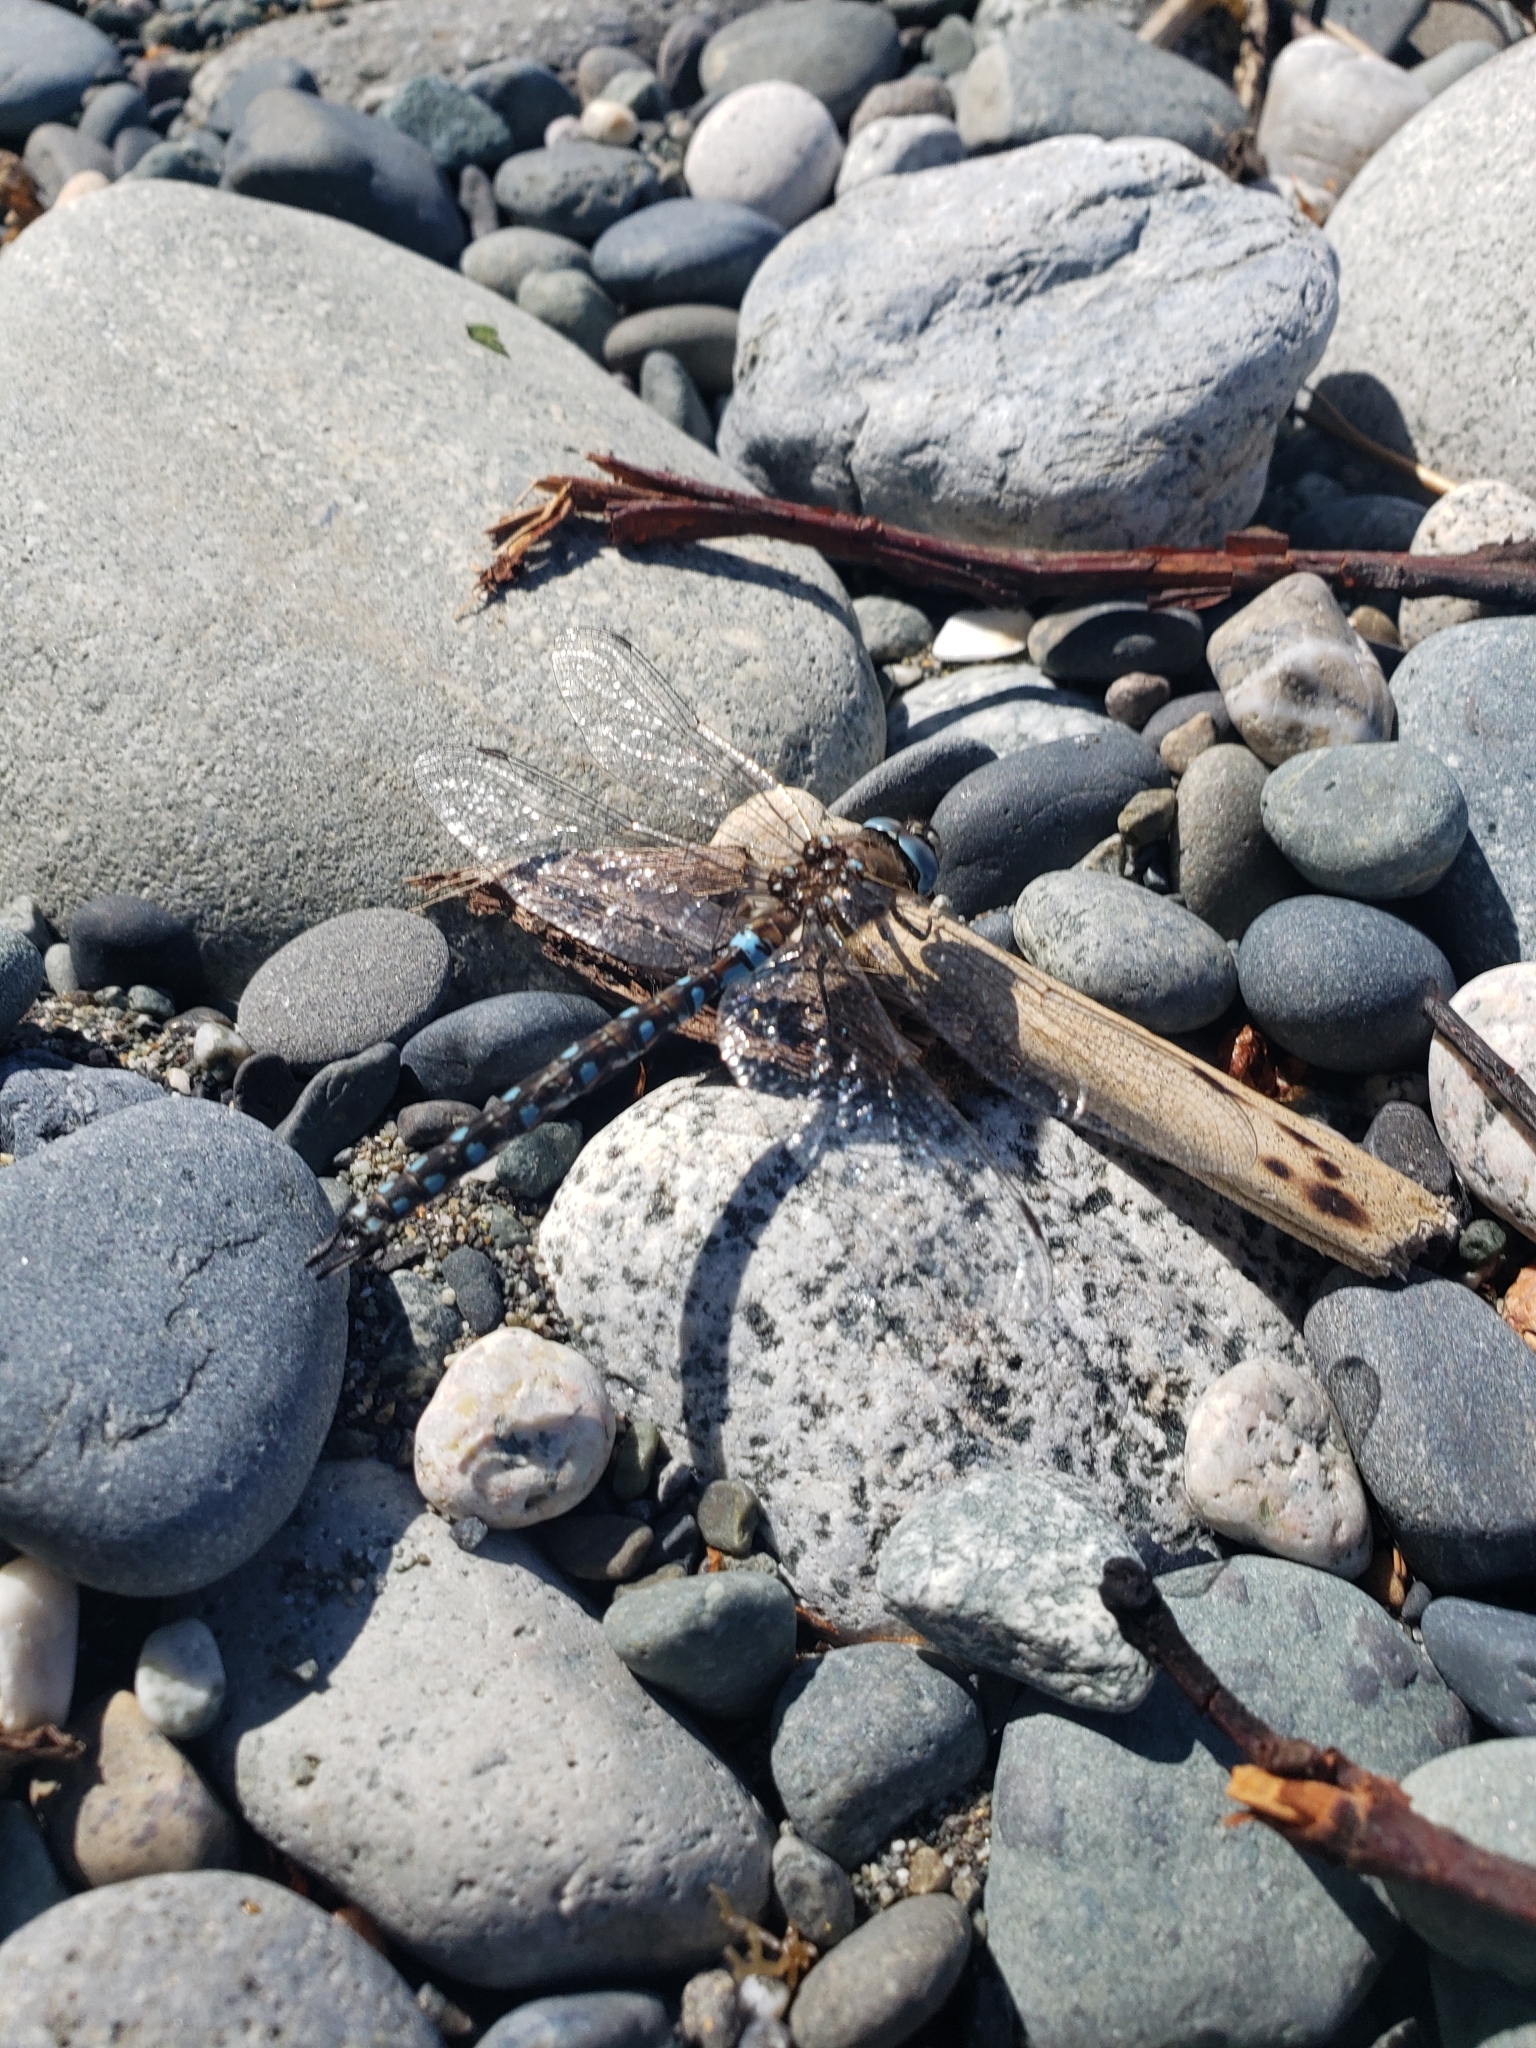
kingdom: Animalia
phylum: Arthropoda
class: Insecta
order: Odonata
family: Aeshnidae
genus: Rhionaeschna
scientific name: Rhionaeschna californica
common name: California darner
